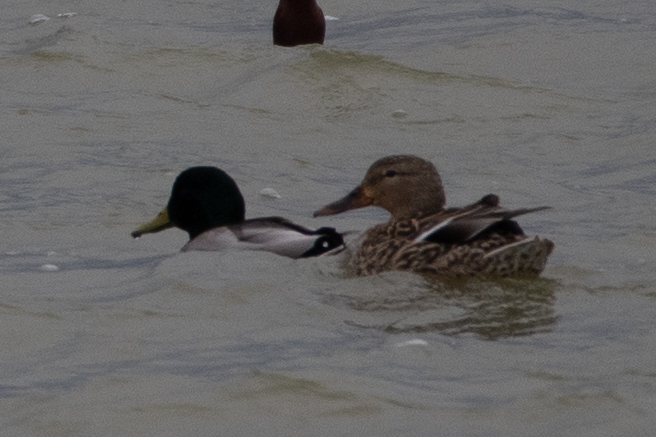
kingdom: Animalia
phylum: Chordata
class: Aves
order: Anseriformes
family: Anatidae
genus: Anas
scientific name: Anas platyrhynchos
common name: Mallard
